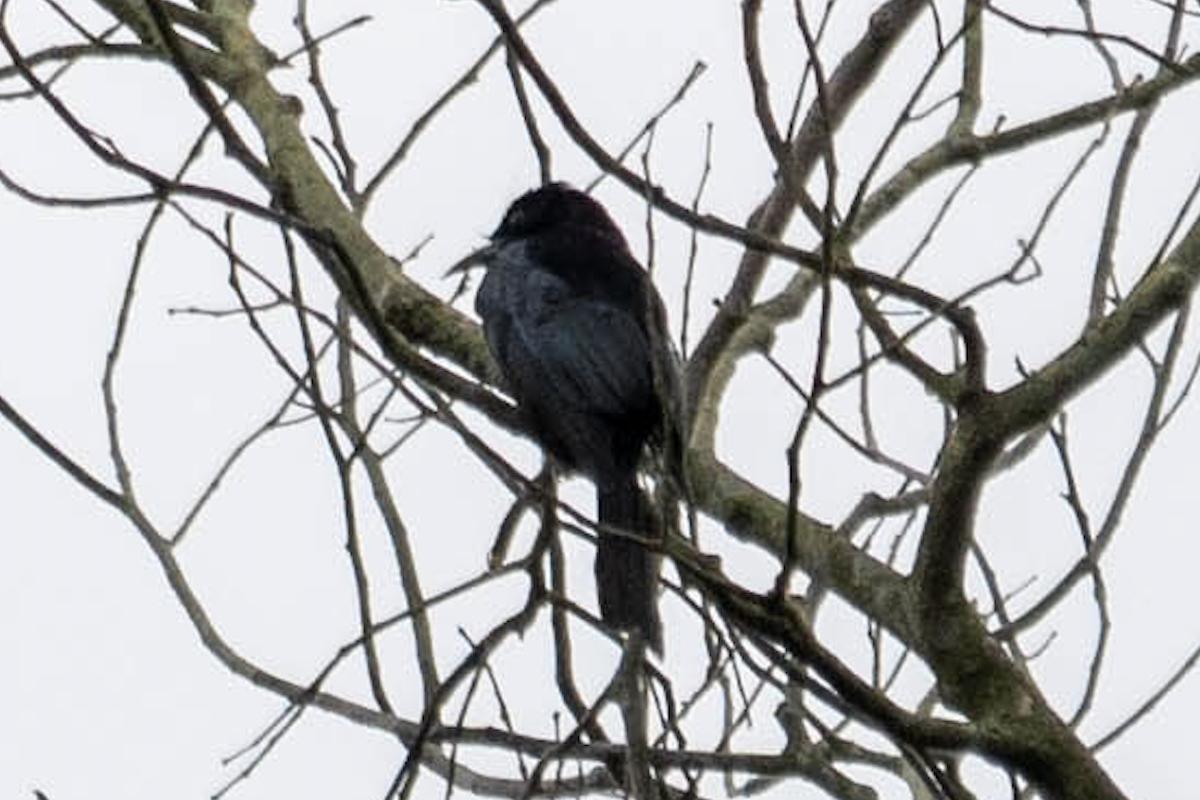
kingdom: Animalia
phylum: Chordata
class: Aves
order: Passeriformes
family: Dicruridae
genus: Dicrurus
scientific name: Dicrurus hottentottus
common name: Hair-crested drongo
